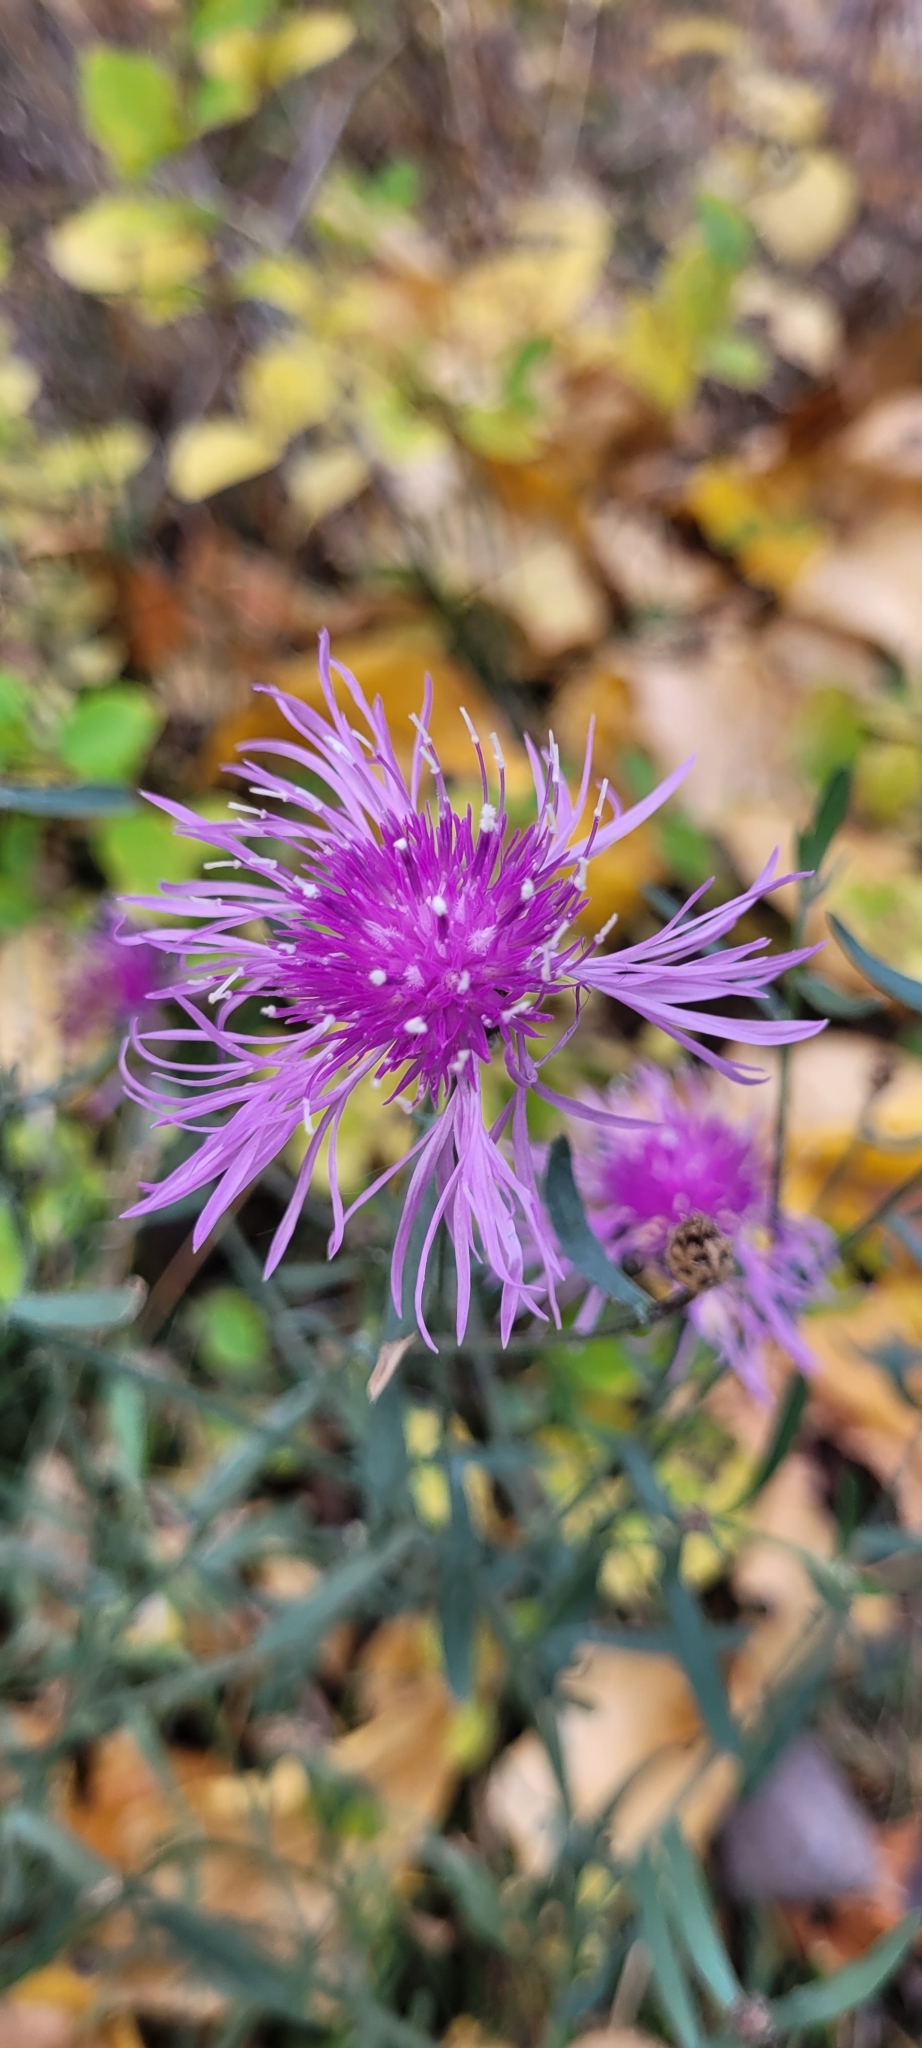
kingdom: Plantae
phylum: Tracheophyta
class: Magnoliopsida
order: Asterales
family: Asteraceae
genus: Centaurea
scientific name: Centaurea stoebe
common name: Spotted knapweed
